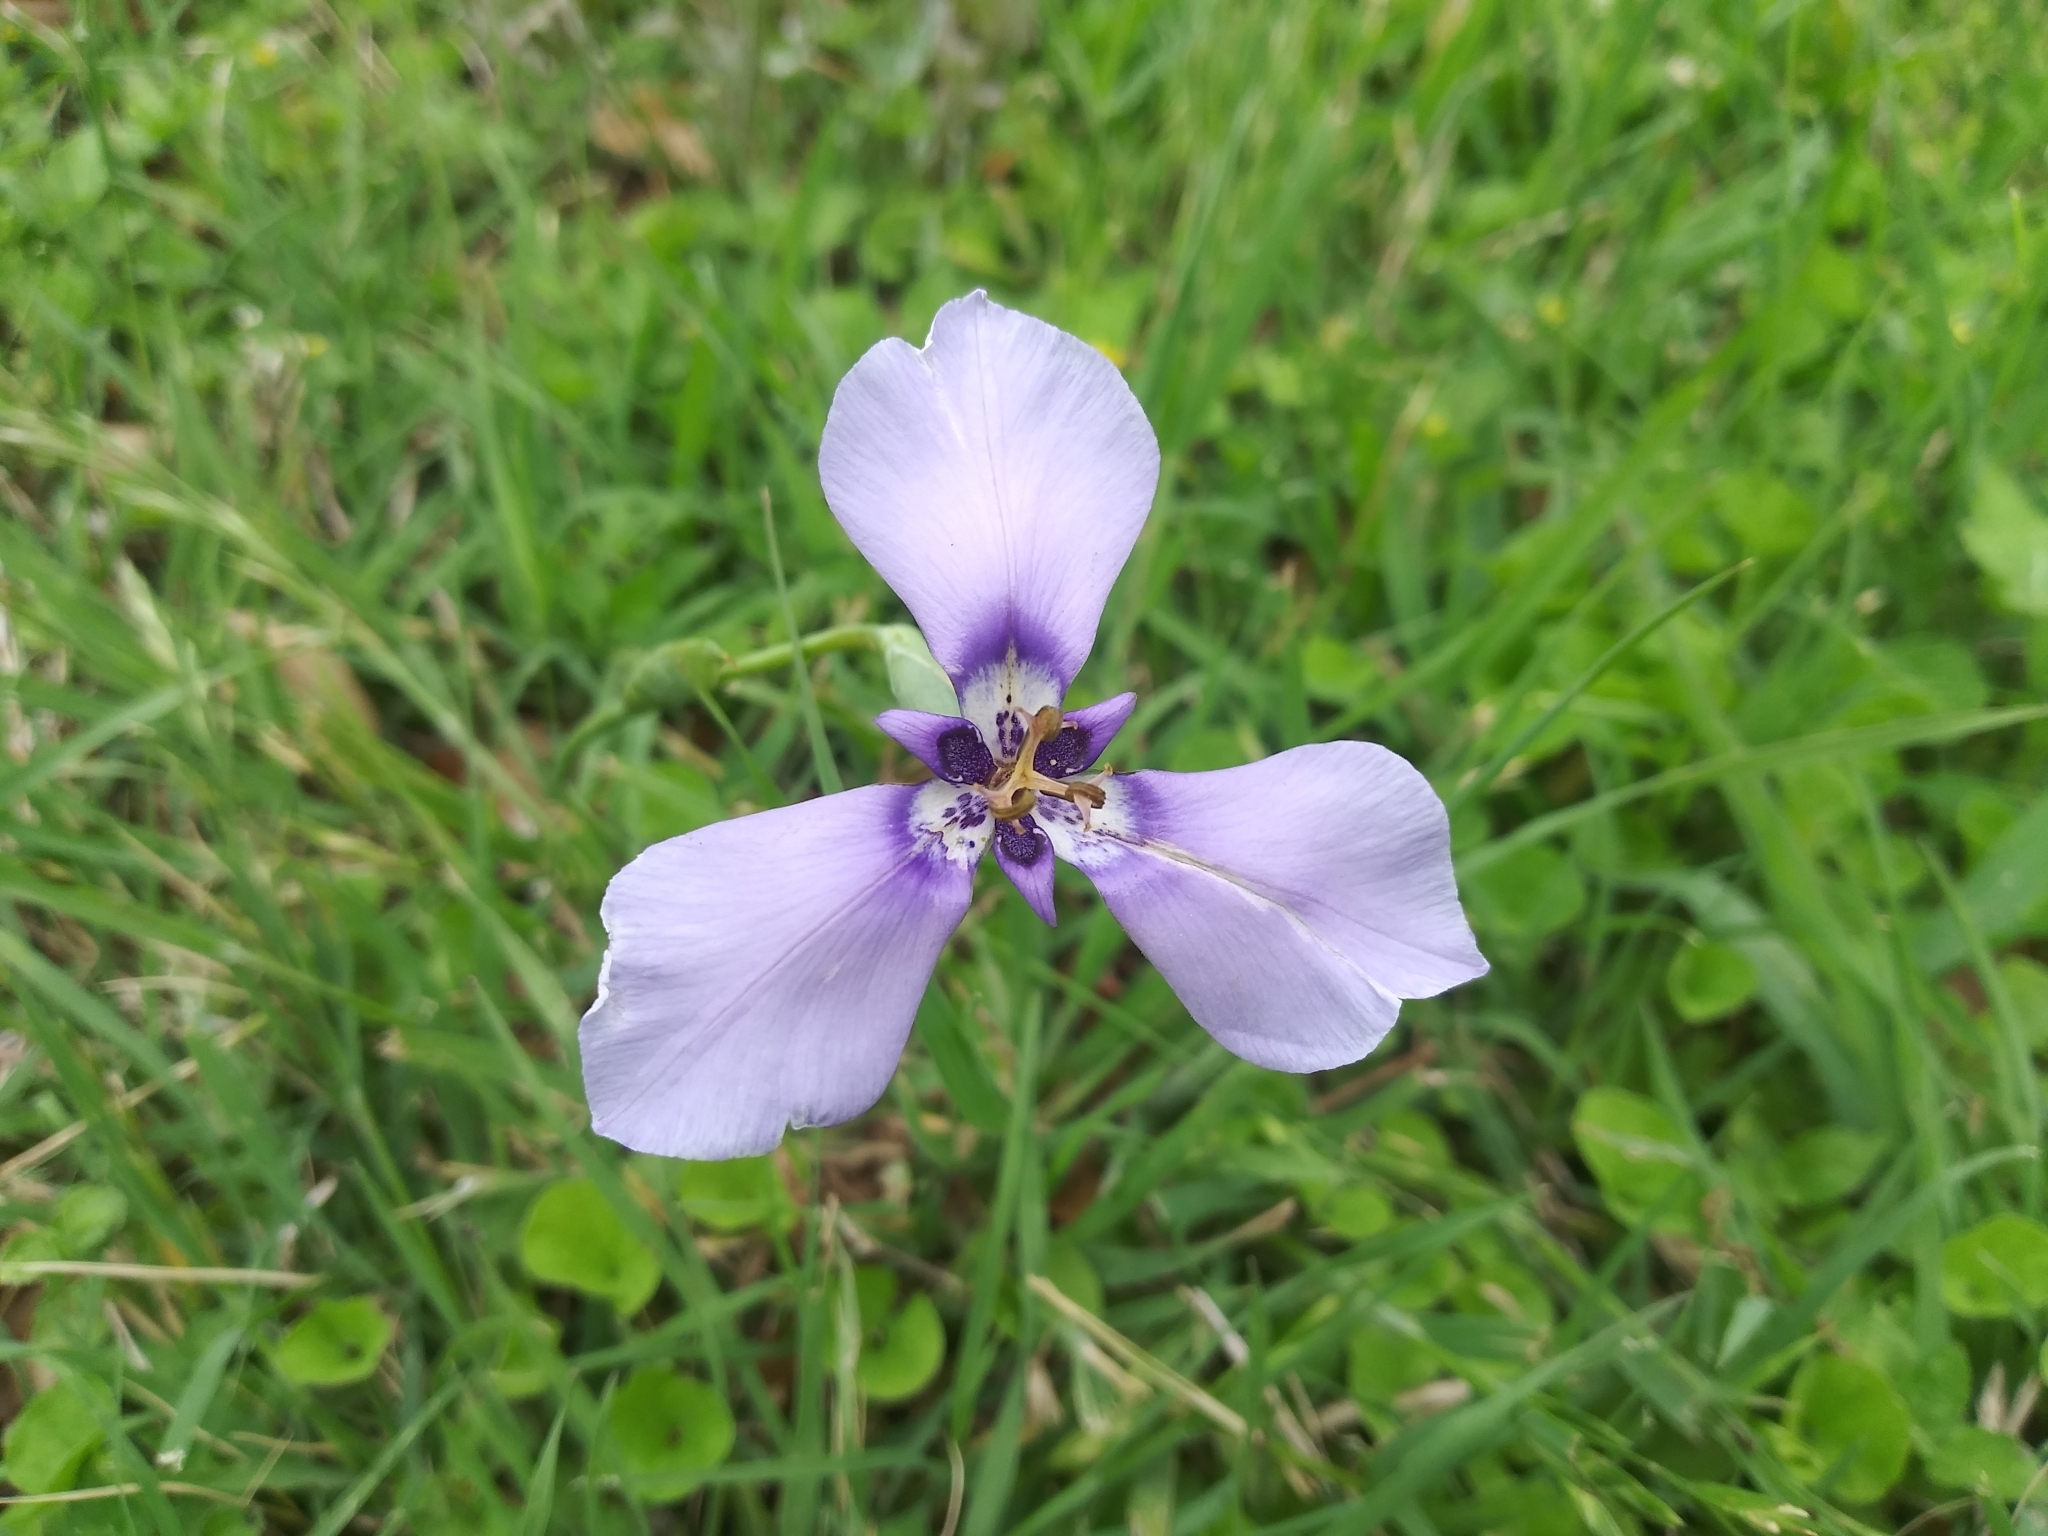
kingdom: Plantae
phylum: Tracheophyta
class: Liliopsida
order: Asparagales
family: Iridaceae
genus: Herbertia
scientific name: Herbertia lahue
